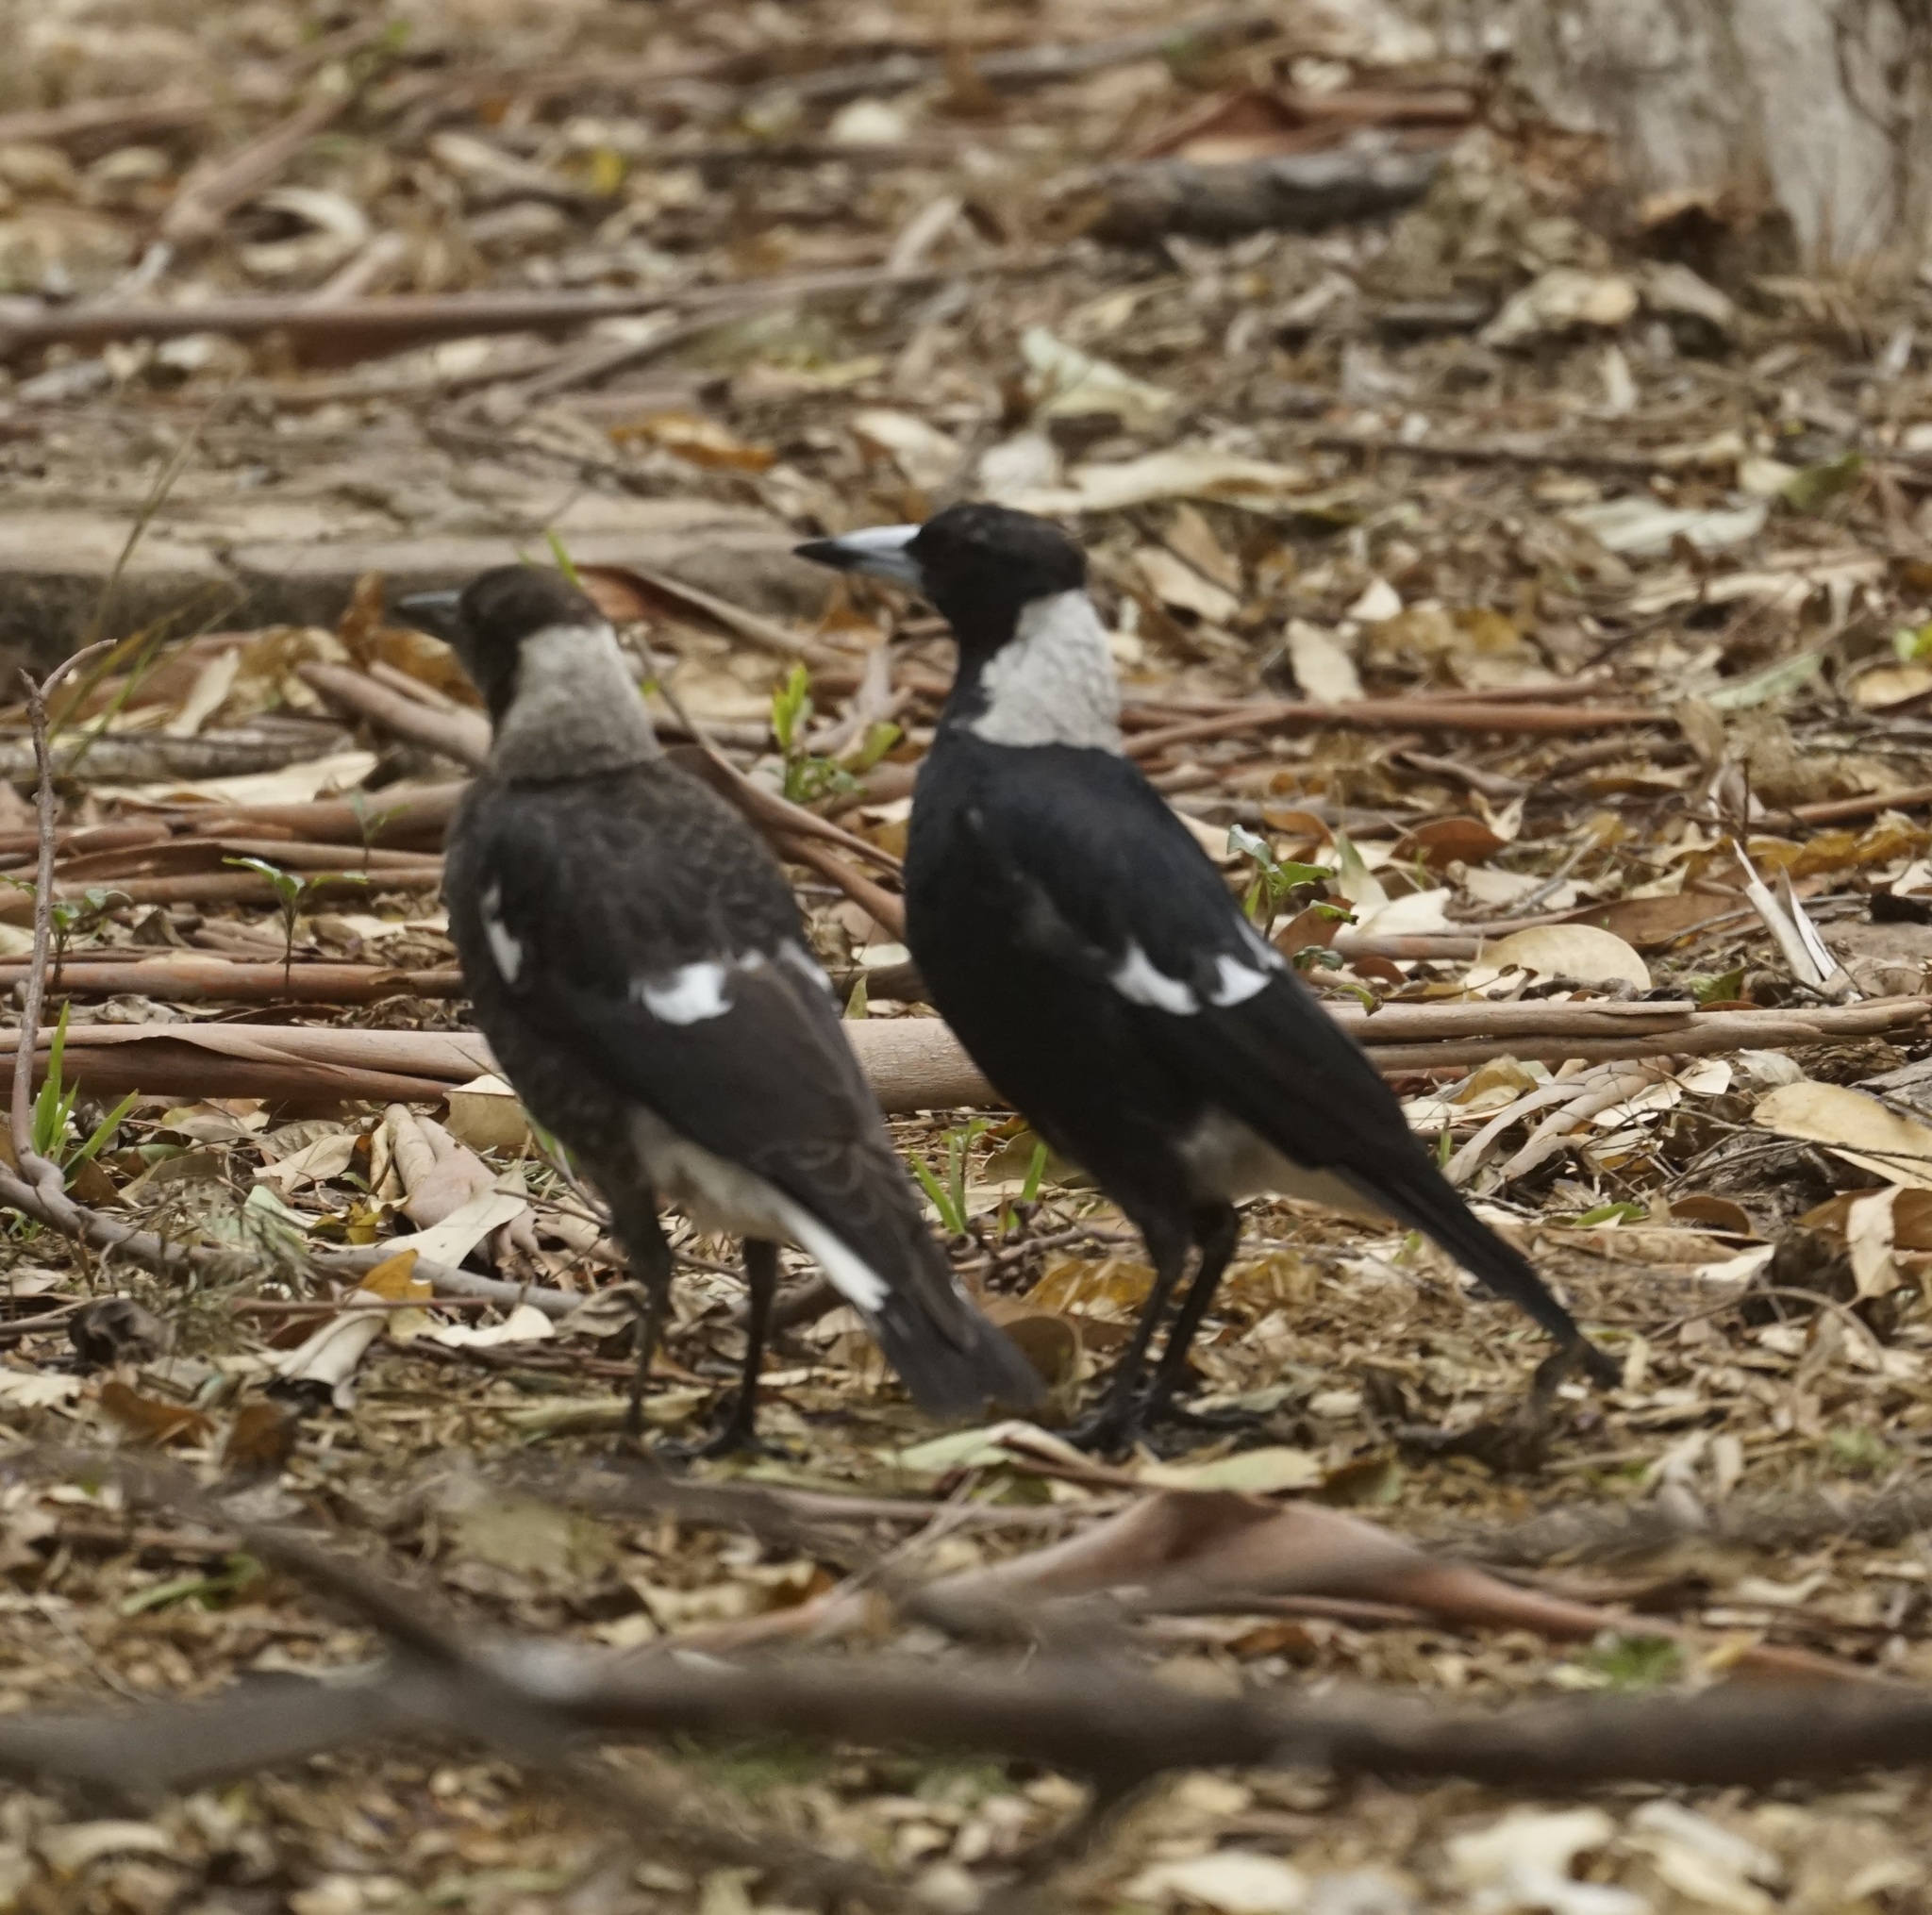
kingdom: Animalia
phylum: Chordata
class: Aves
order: Passeriformes
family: Cracticidae
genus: Gymnorhina
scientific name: Gymnorhina tibicen
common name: Australian magpie
